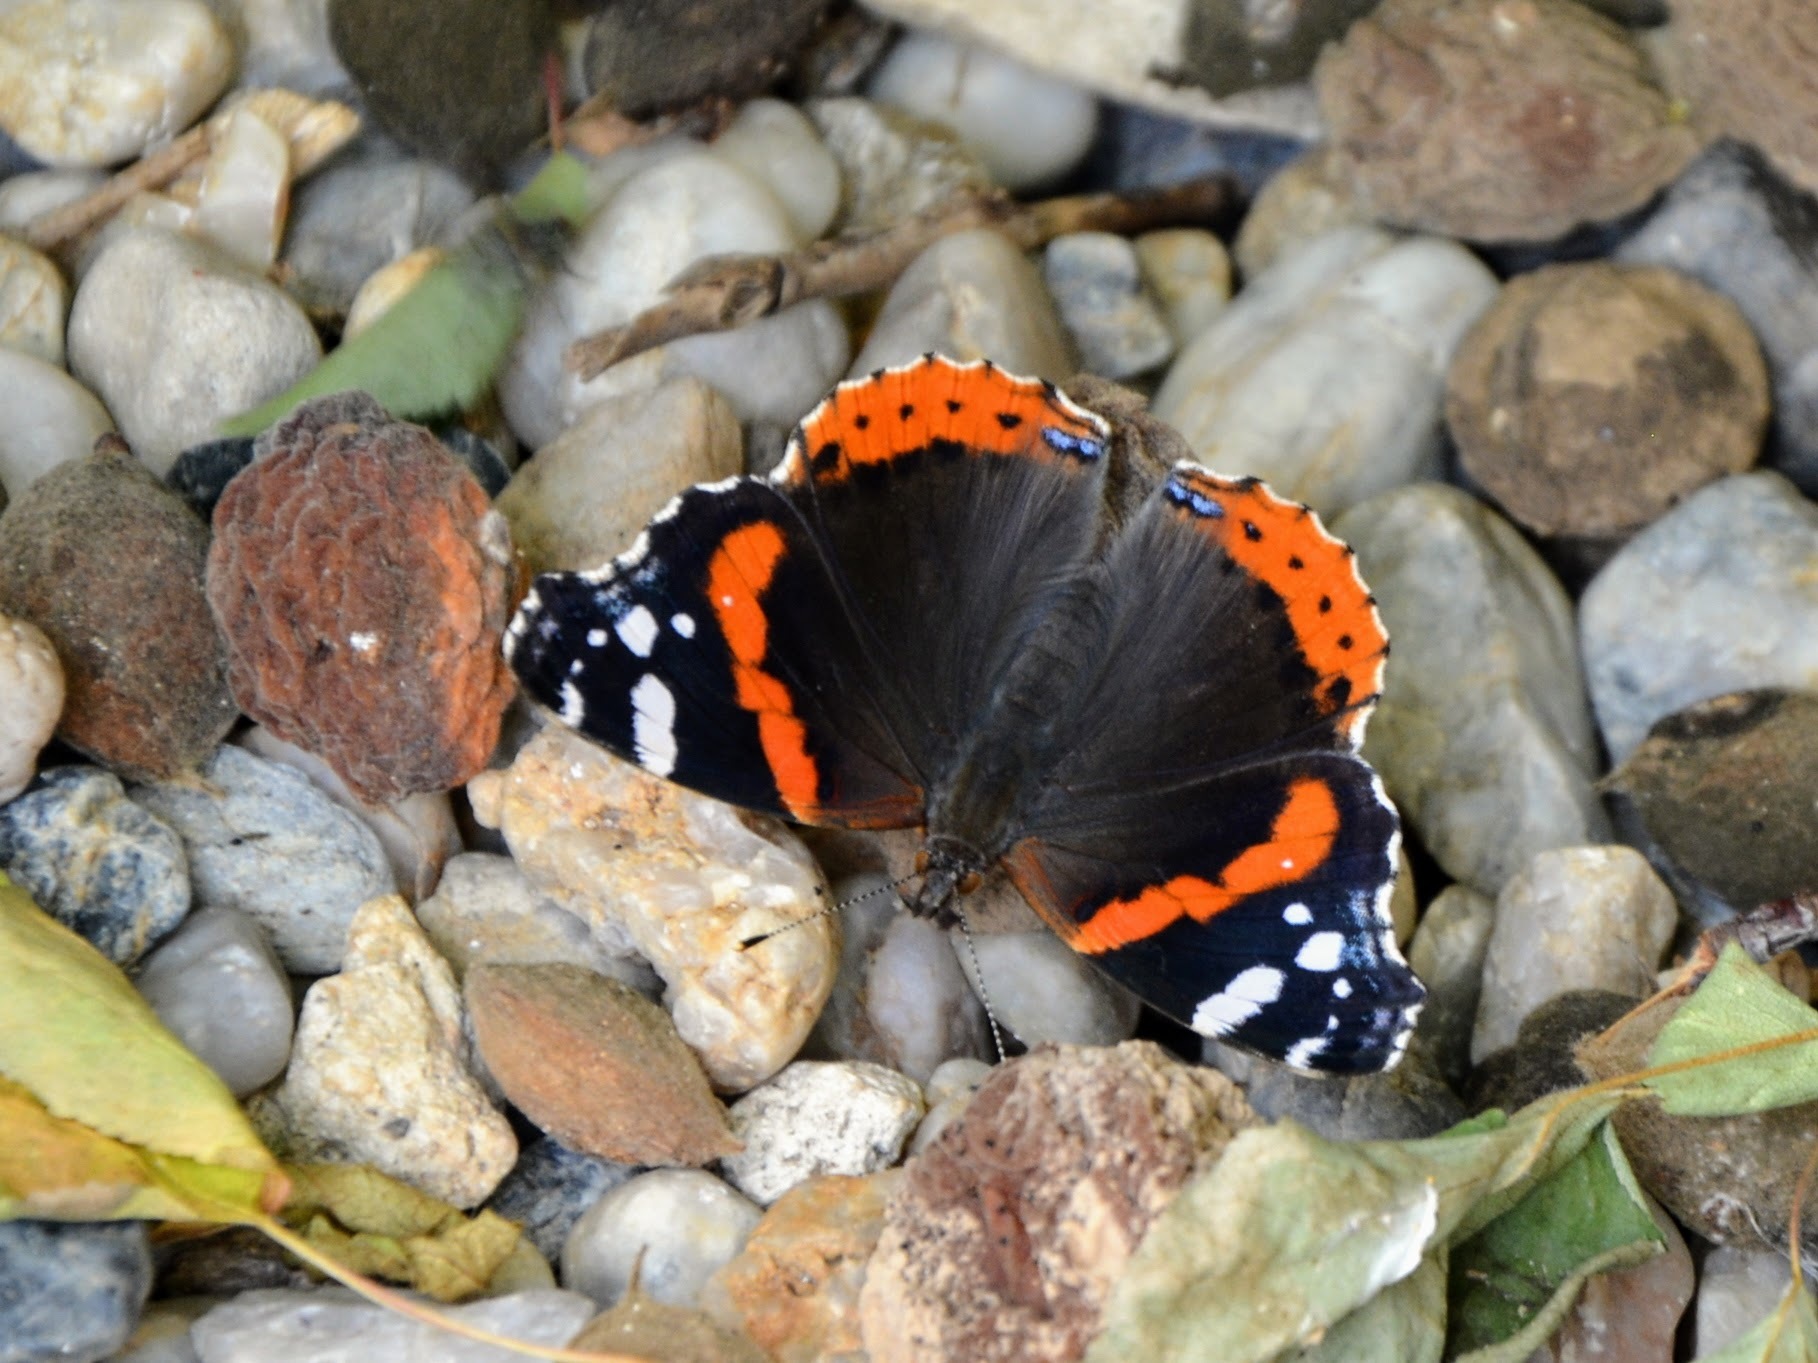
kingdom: Animalia
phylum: Arthropoda
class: Insecta
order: Lepidoptera
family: Nymphalidae
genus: Vanessa
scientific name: Vanessa atalanta
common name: Red admiral
